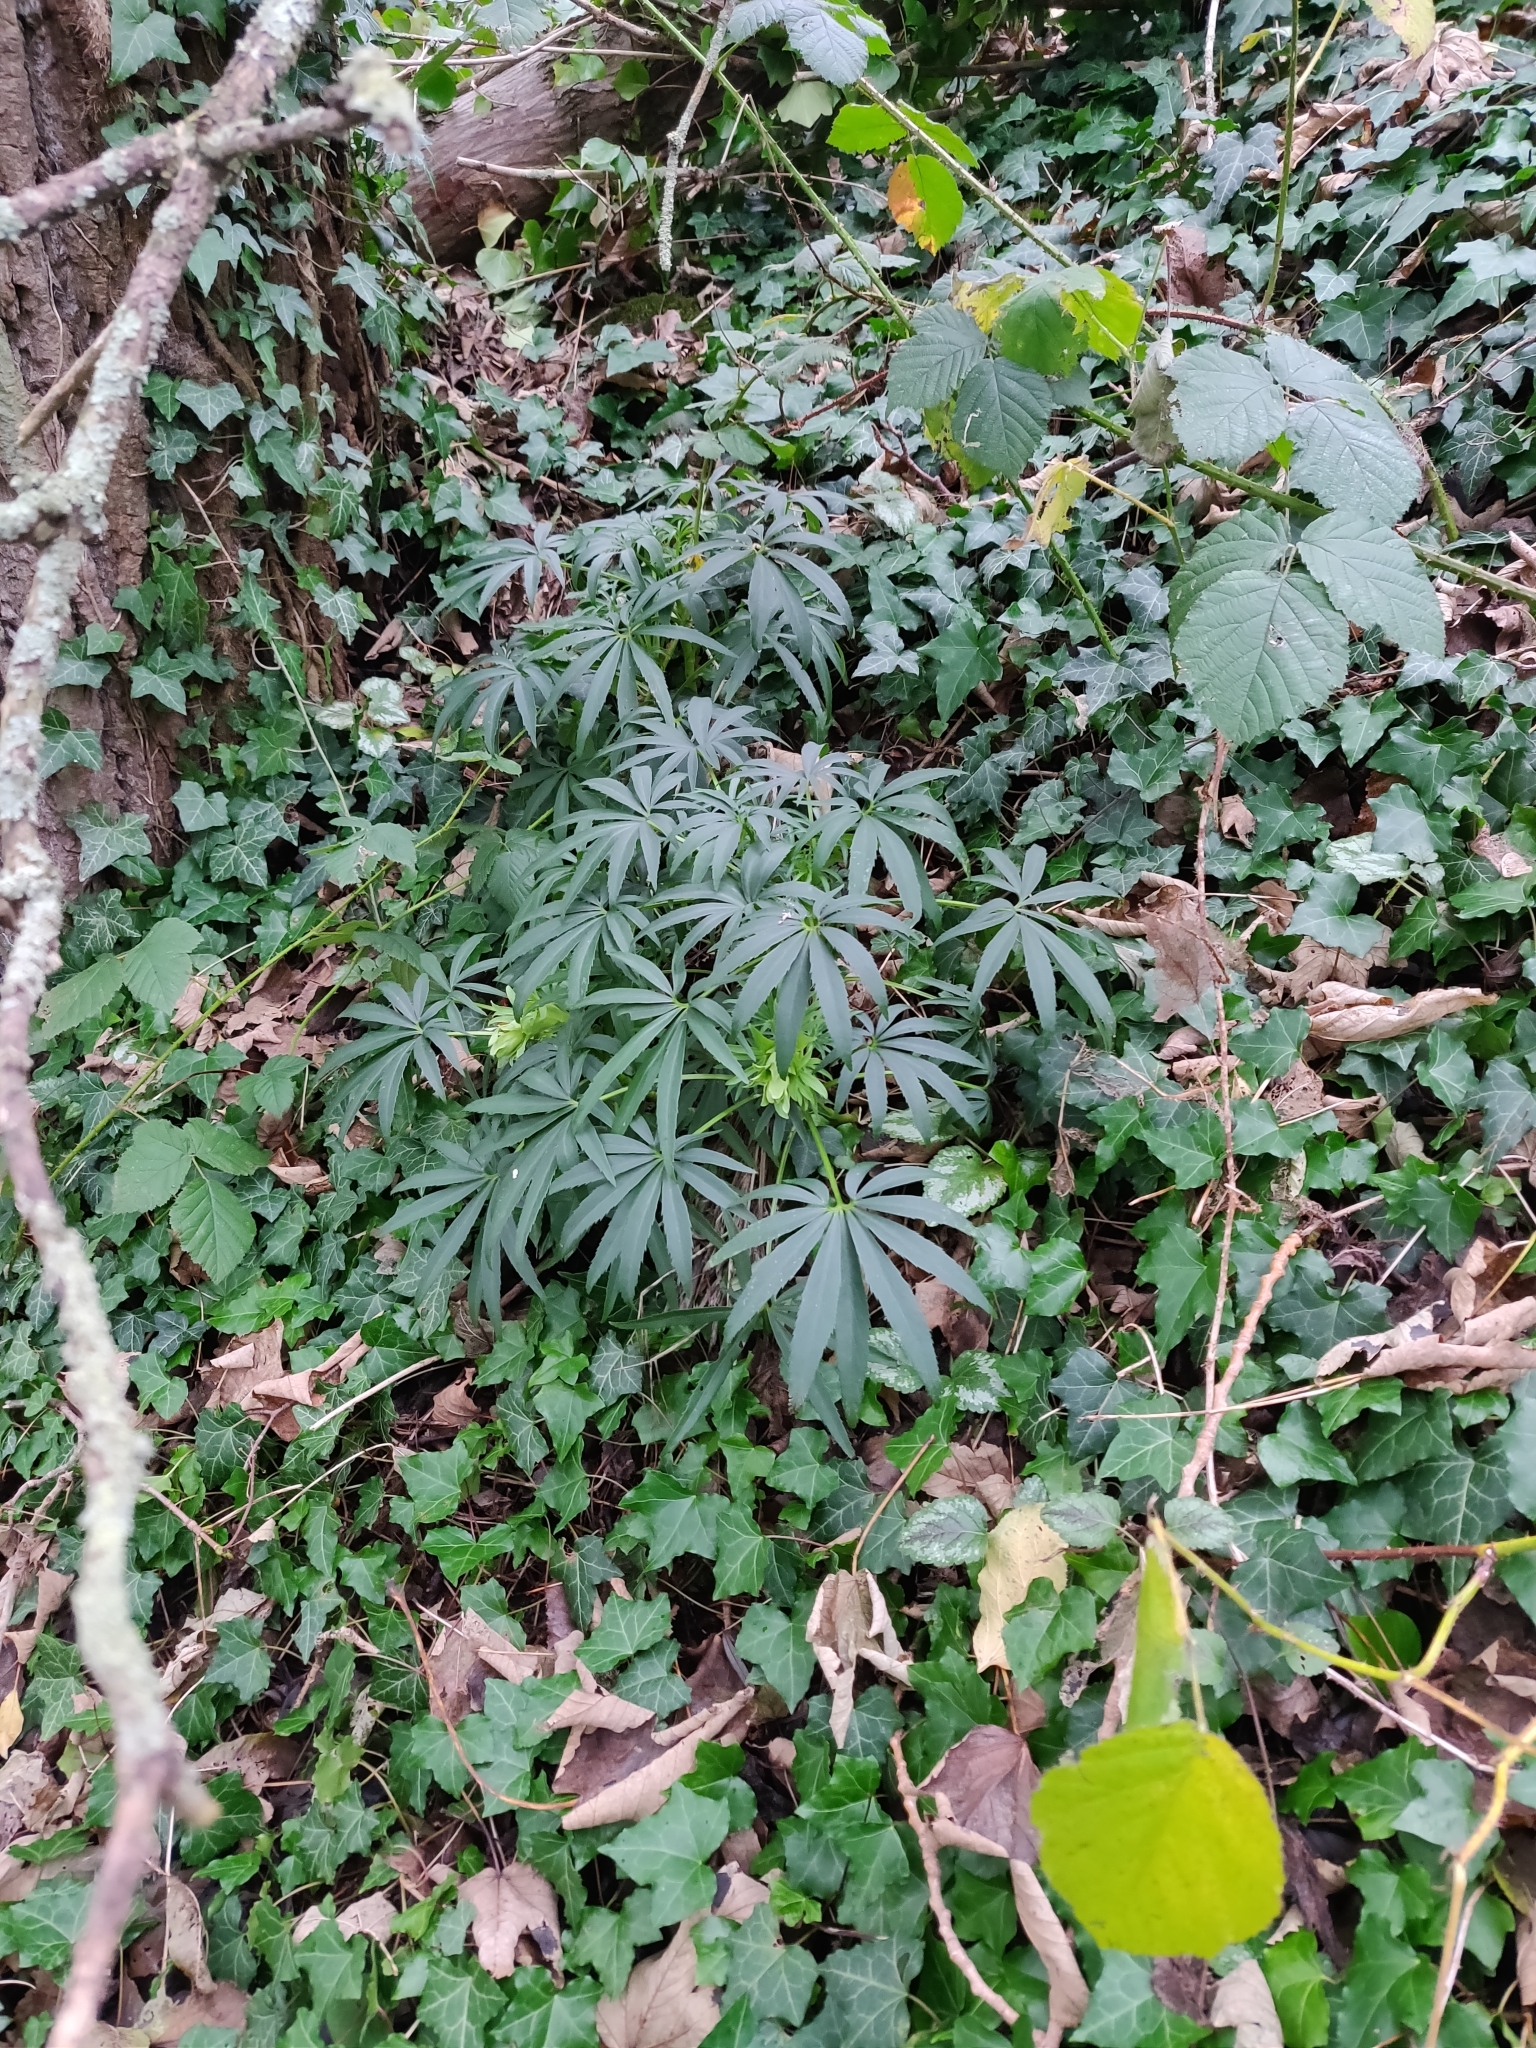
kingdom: Plantae
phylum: Tracheophyta
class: Magnoliopsida
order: Ranunculales
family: Ranunculaceae
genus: Helleborus
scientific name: Helleborus foetidus
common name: Stinking hellebore
